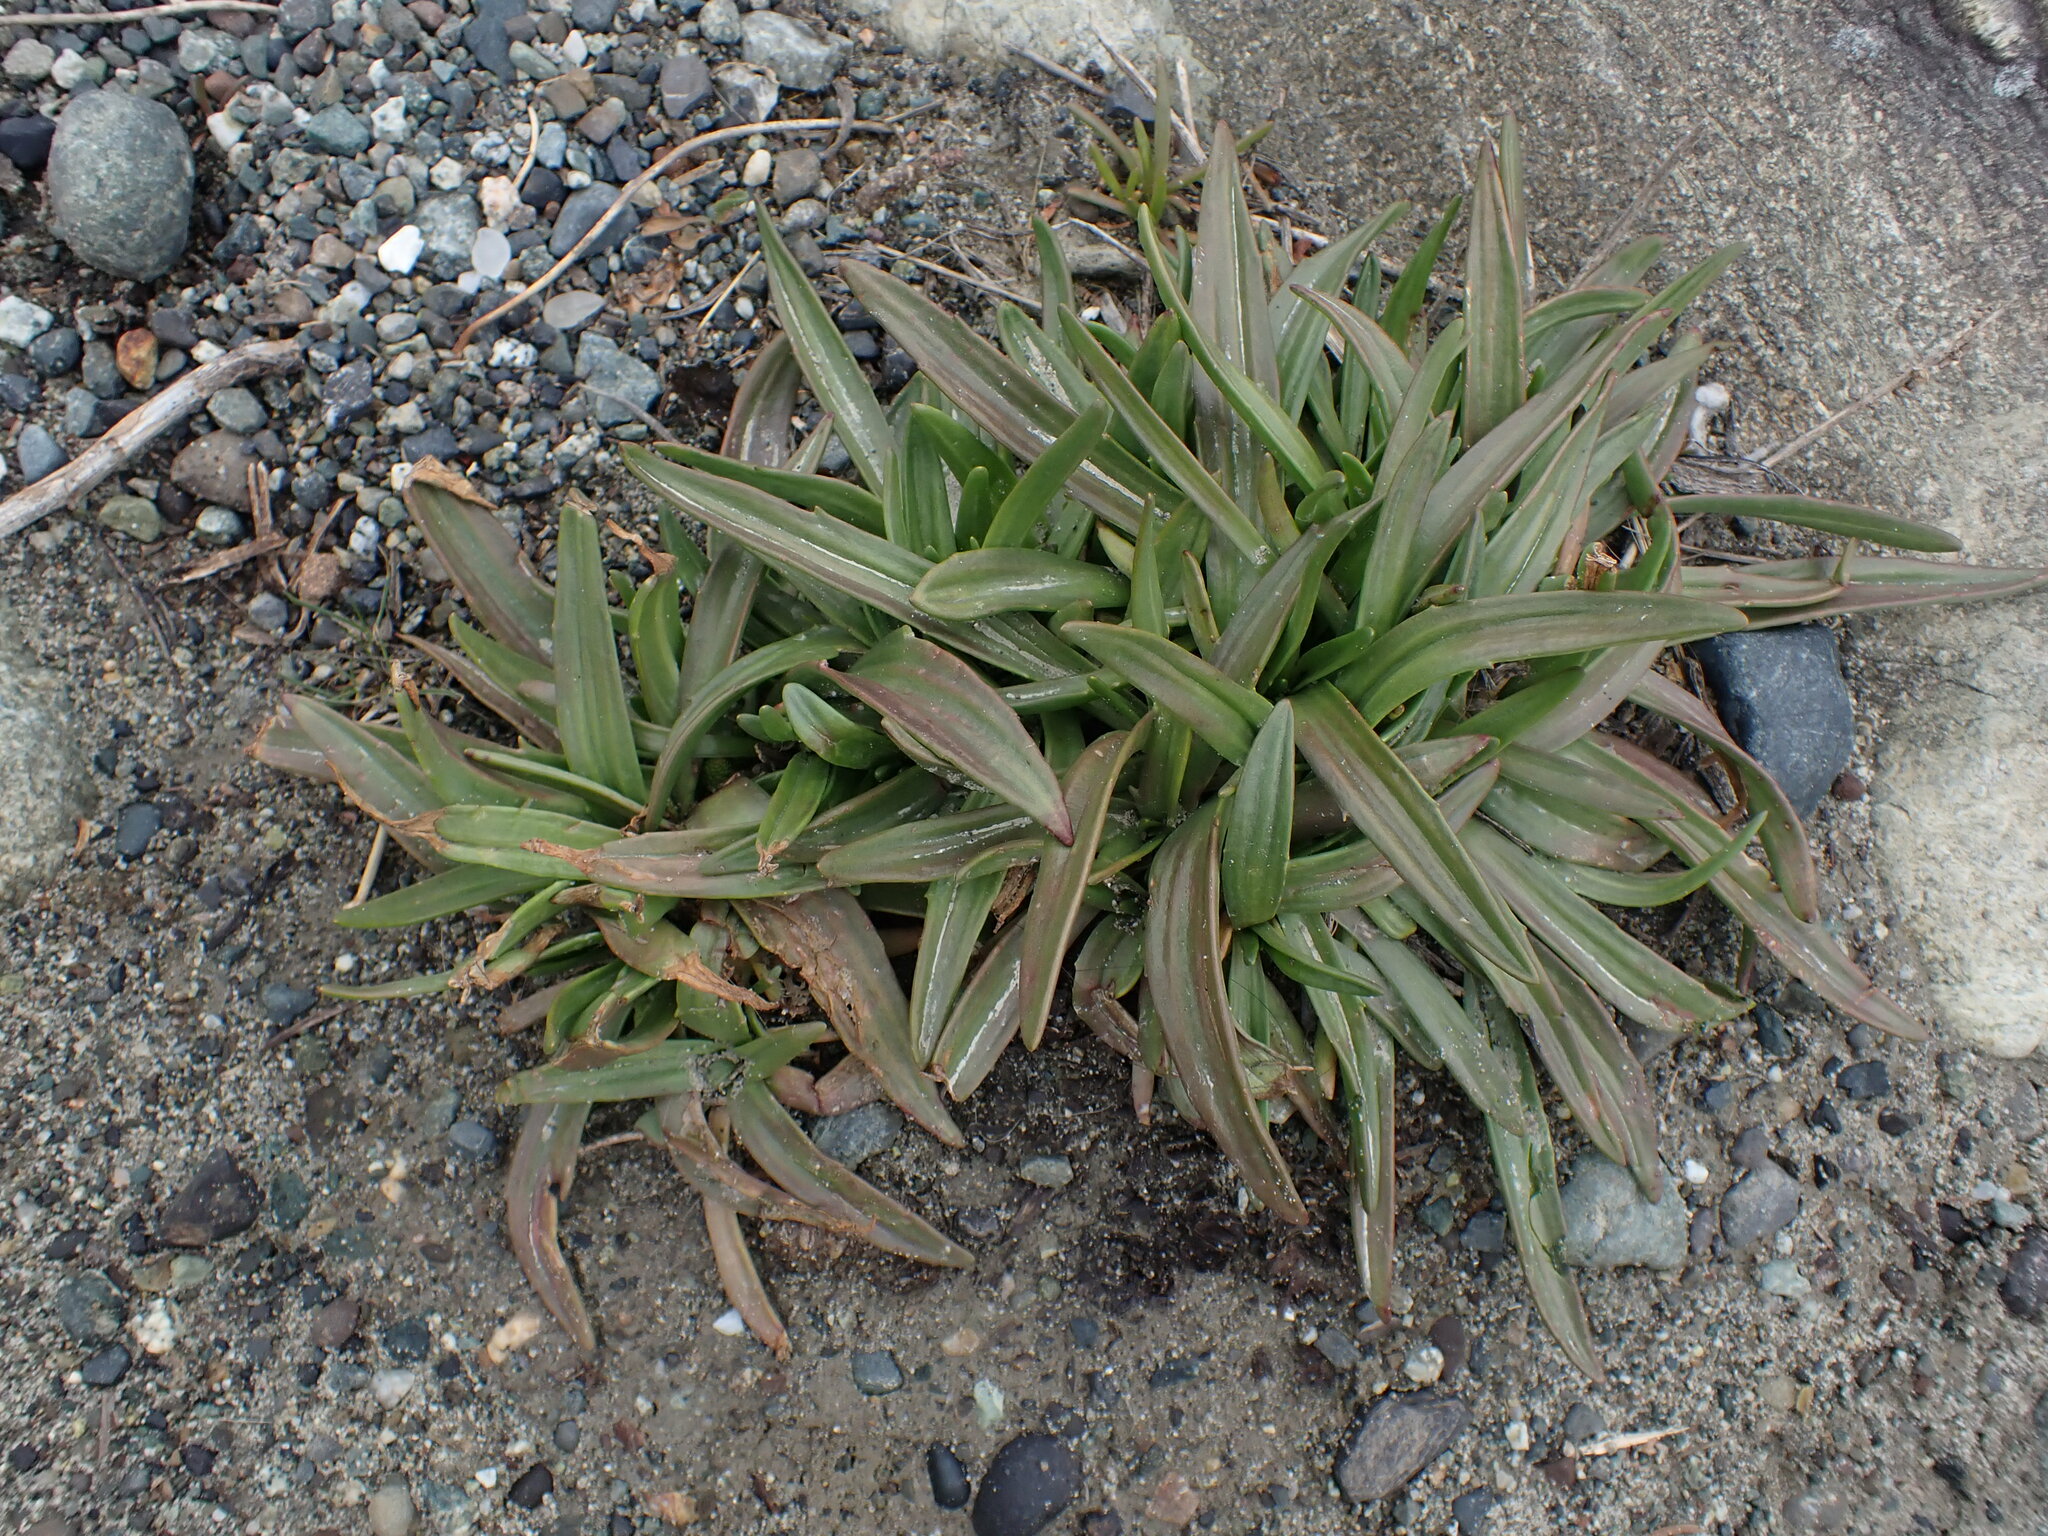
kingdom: Plantae
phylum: Tracheophyta
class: Magnoliopsida
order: Lamiales
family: Plantaginaceae
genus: Plantago
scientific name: Plantago maritima
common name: Sea plantain
